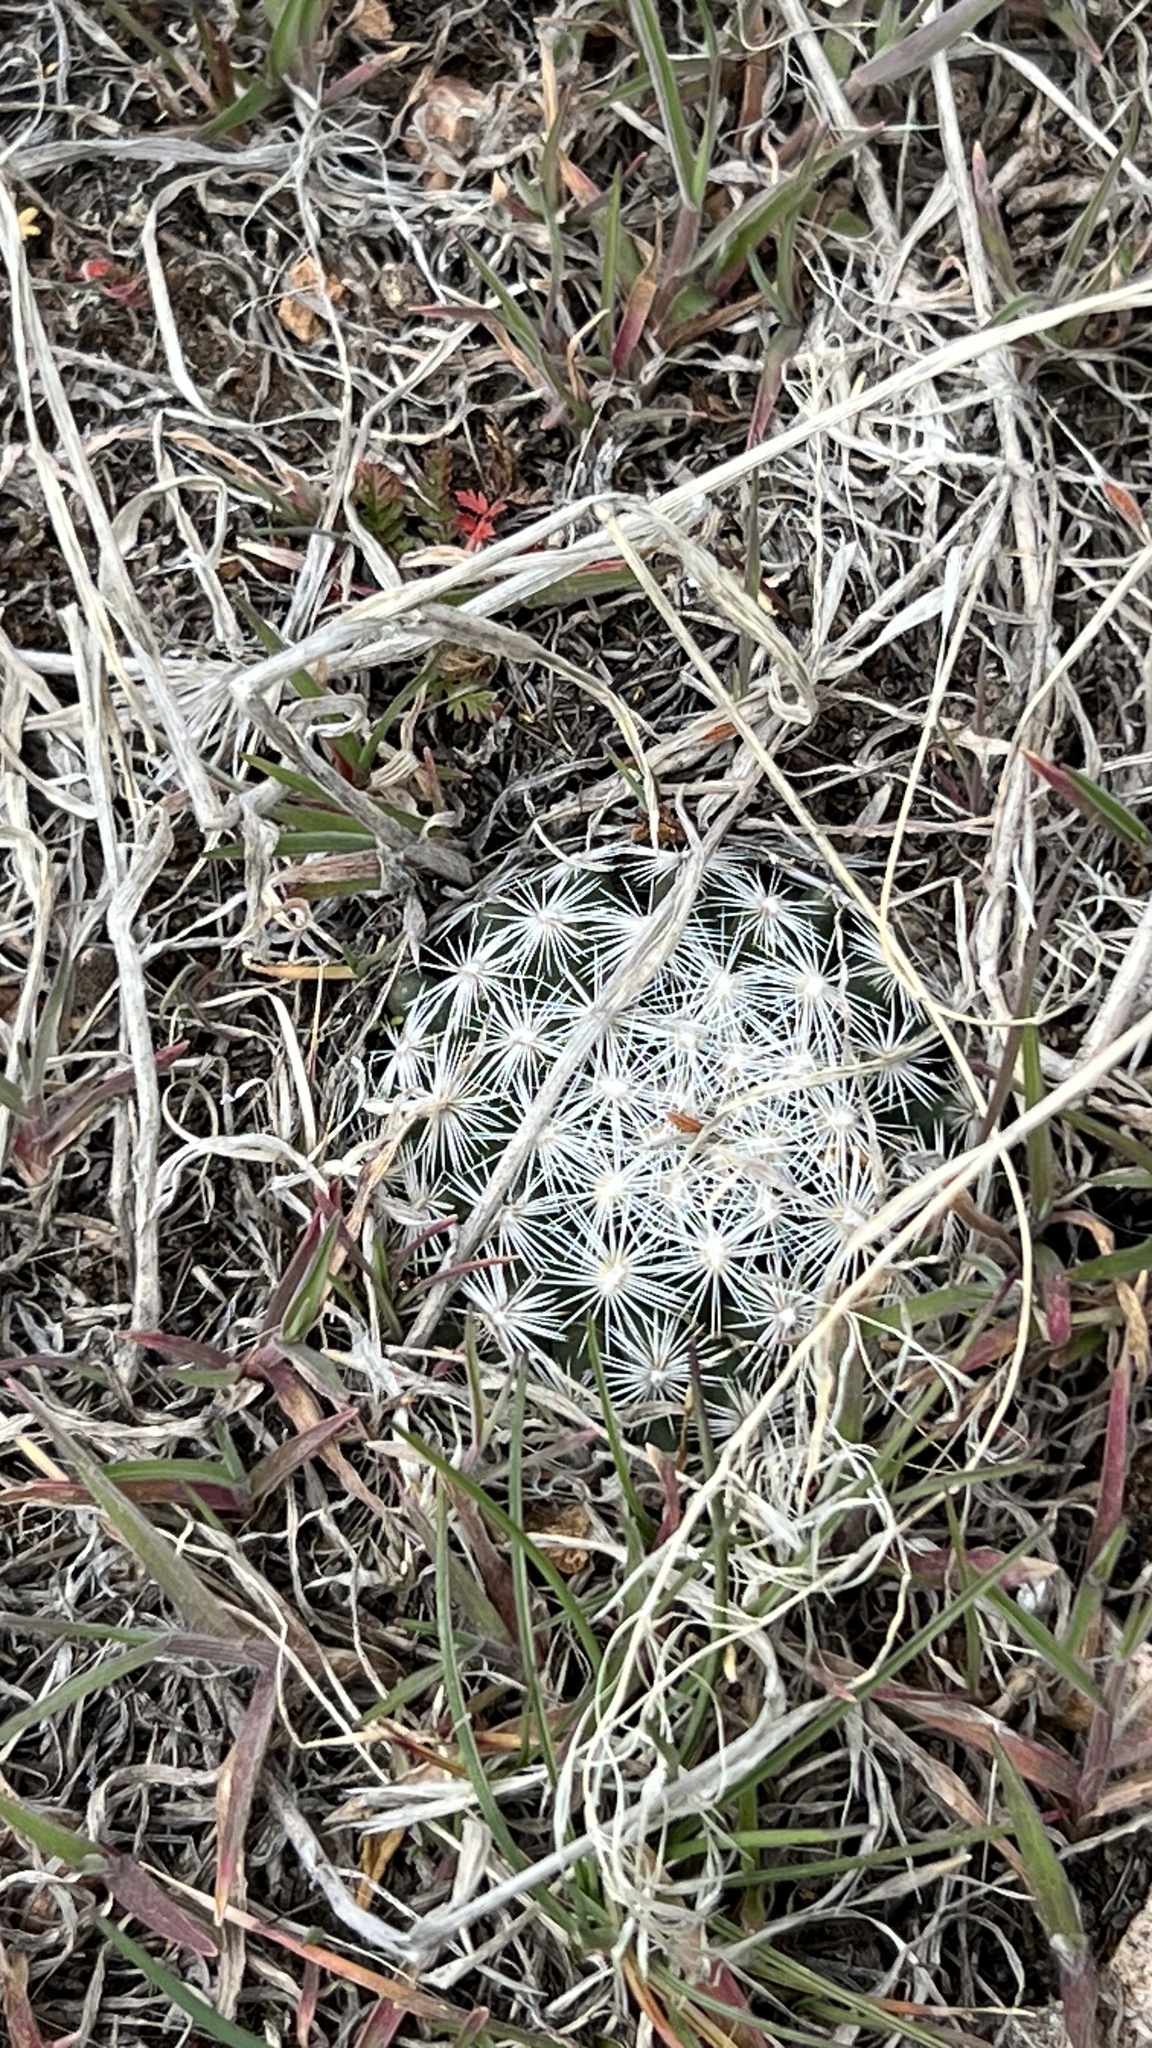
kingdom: Plantae
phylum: Tracheophyta
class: Magnoliopsida
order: Caryophyllales
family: Cactaceae
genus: Pelecyphora
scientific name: Pelecyphora vivipara
